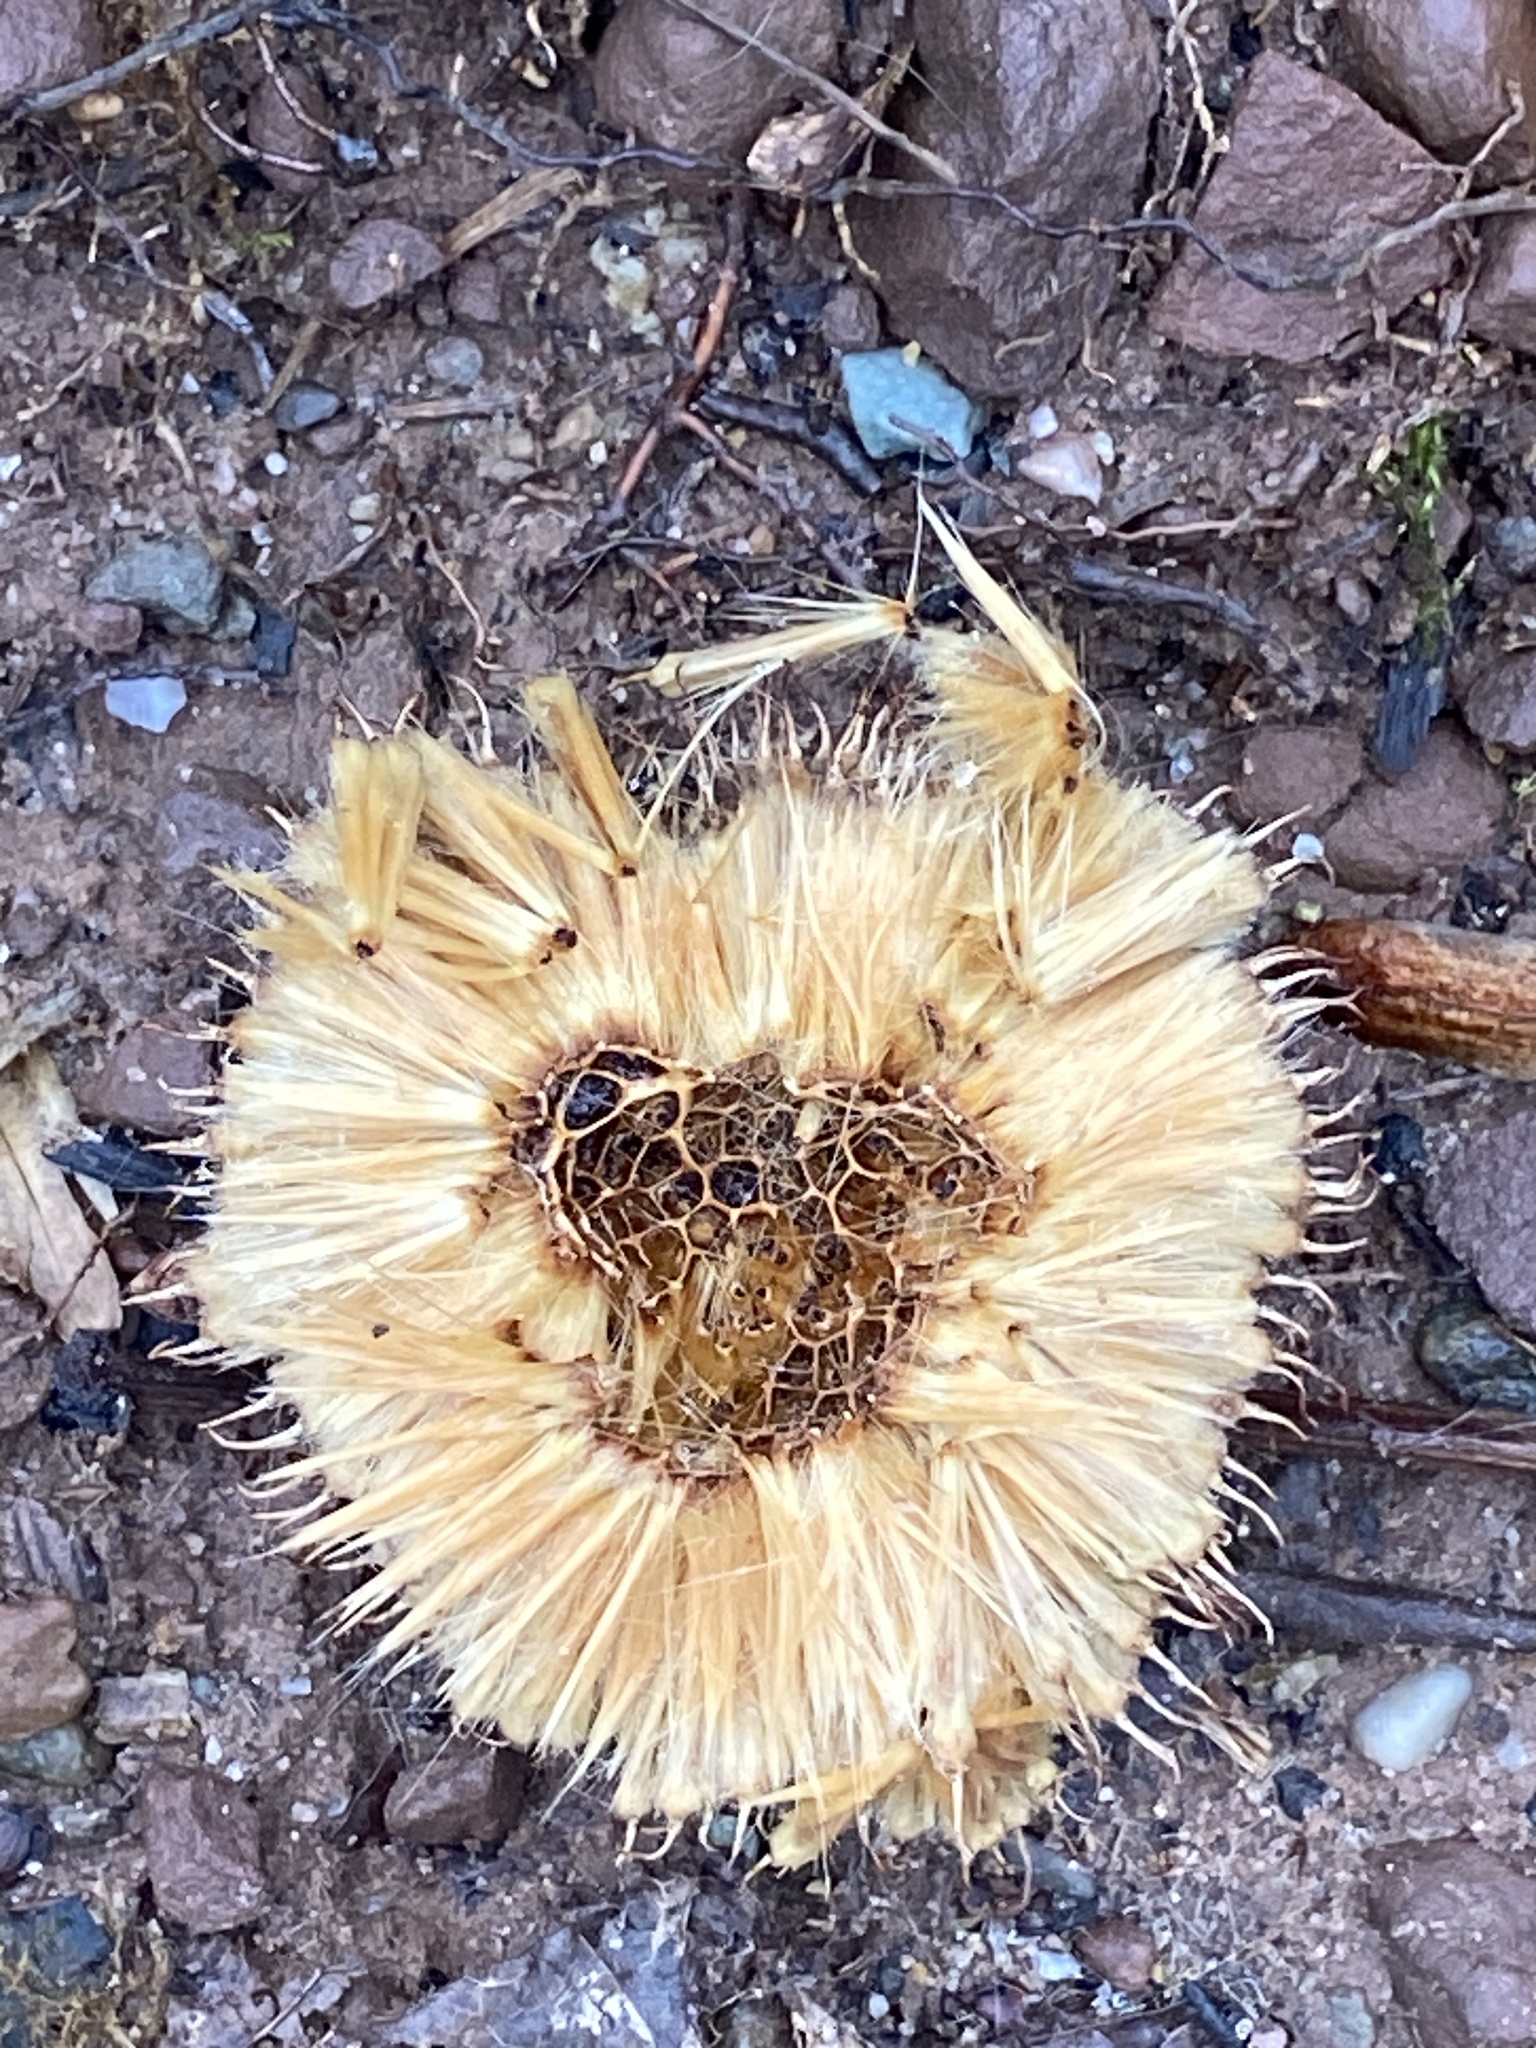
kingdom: Plantae
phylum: Tracheophyta
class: Magnoliopsida
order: Proteales
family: Platanaceae
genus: Platanus
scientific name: Platanus occidentalis
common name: American sycamore
